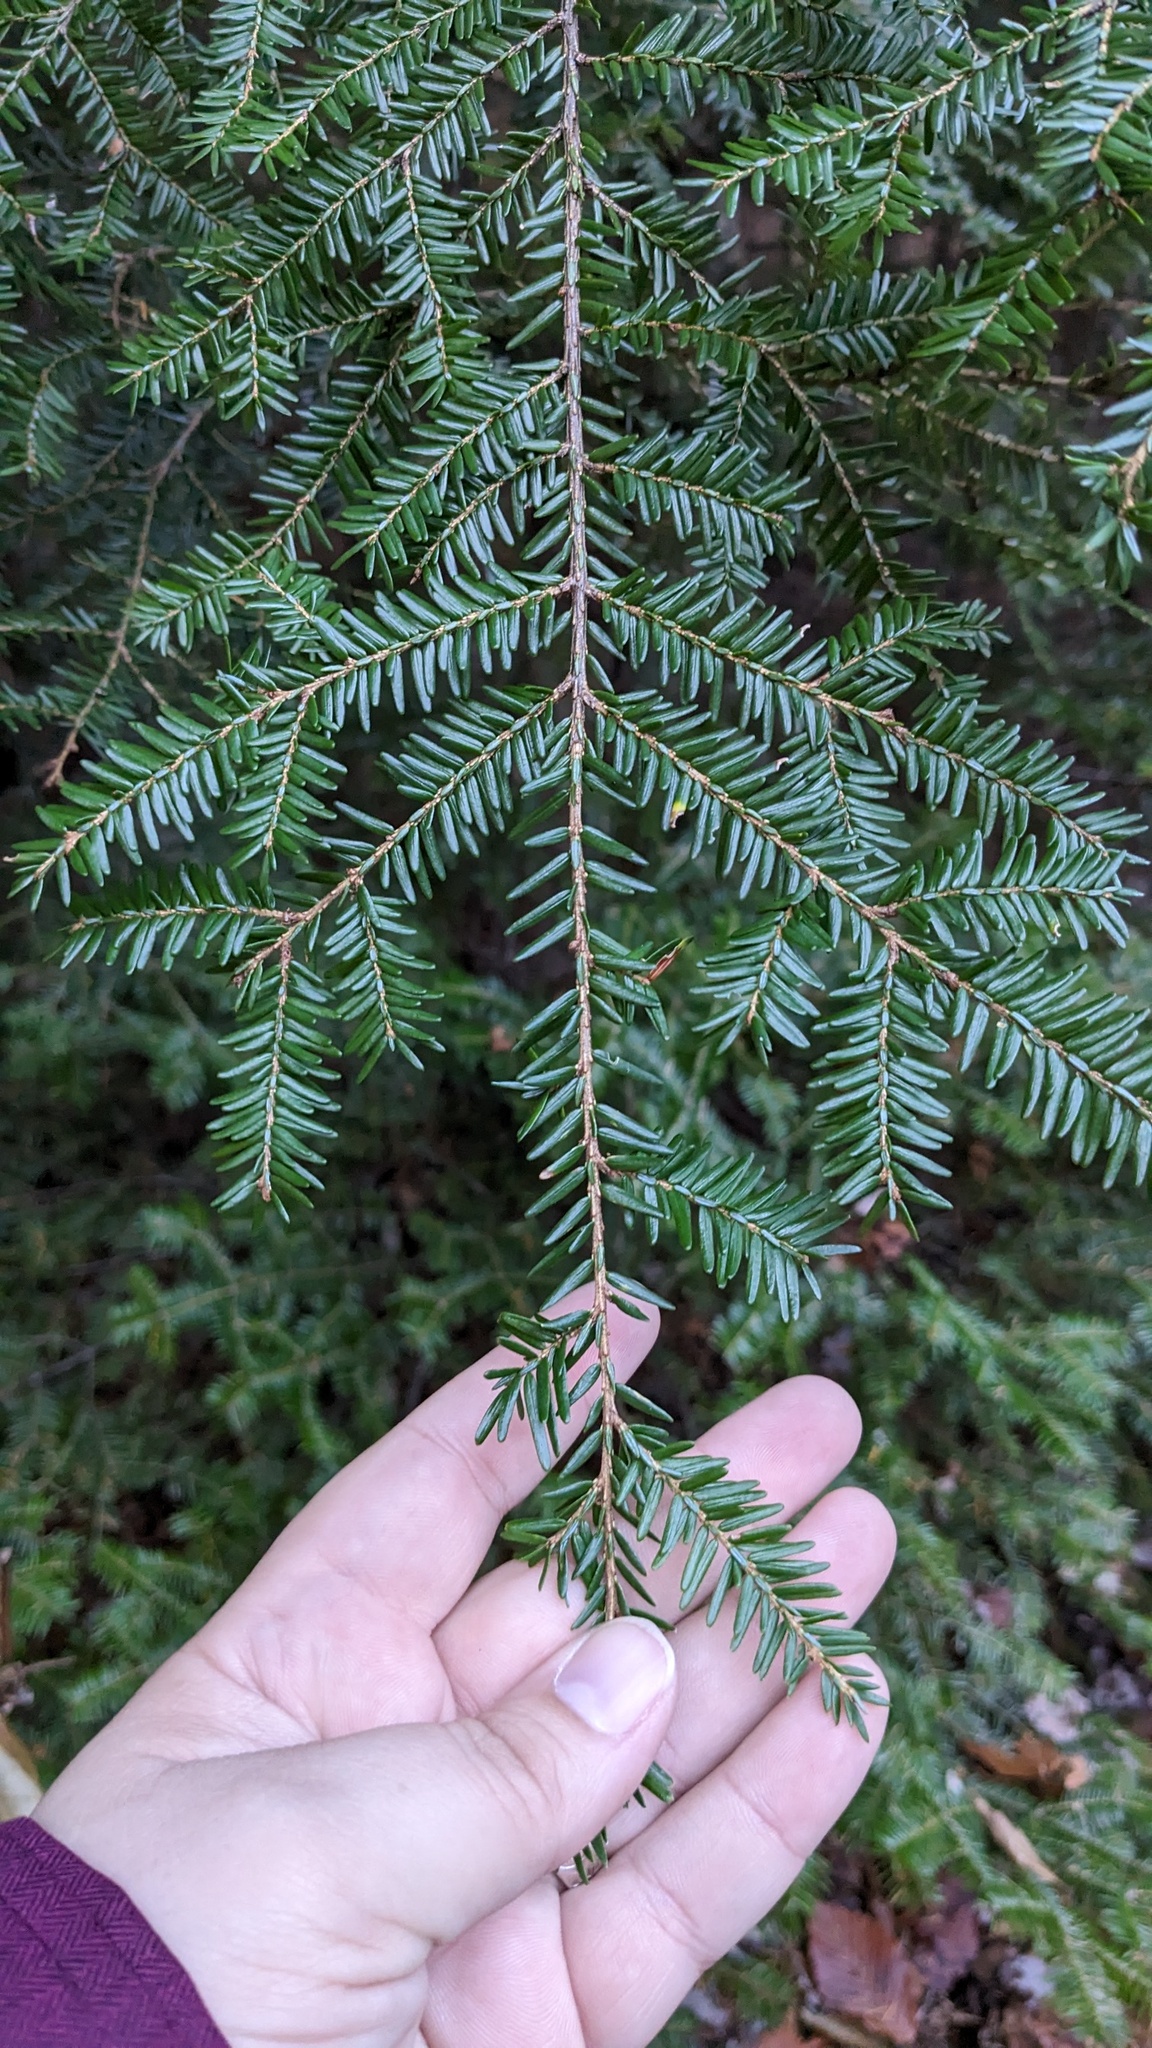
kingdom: Plantae
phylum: Tracheophyta
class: Pinopsida
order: Pinales
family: Pinaceae
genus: Tsuga
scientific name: Tsuga canadensis
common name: Eastern hemlock
